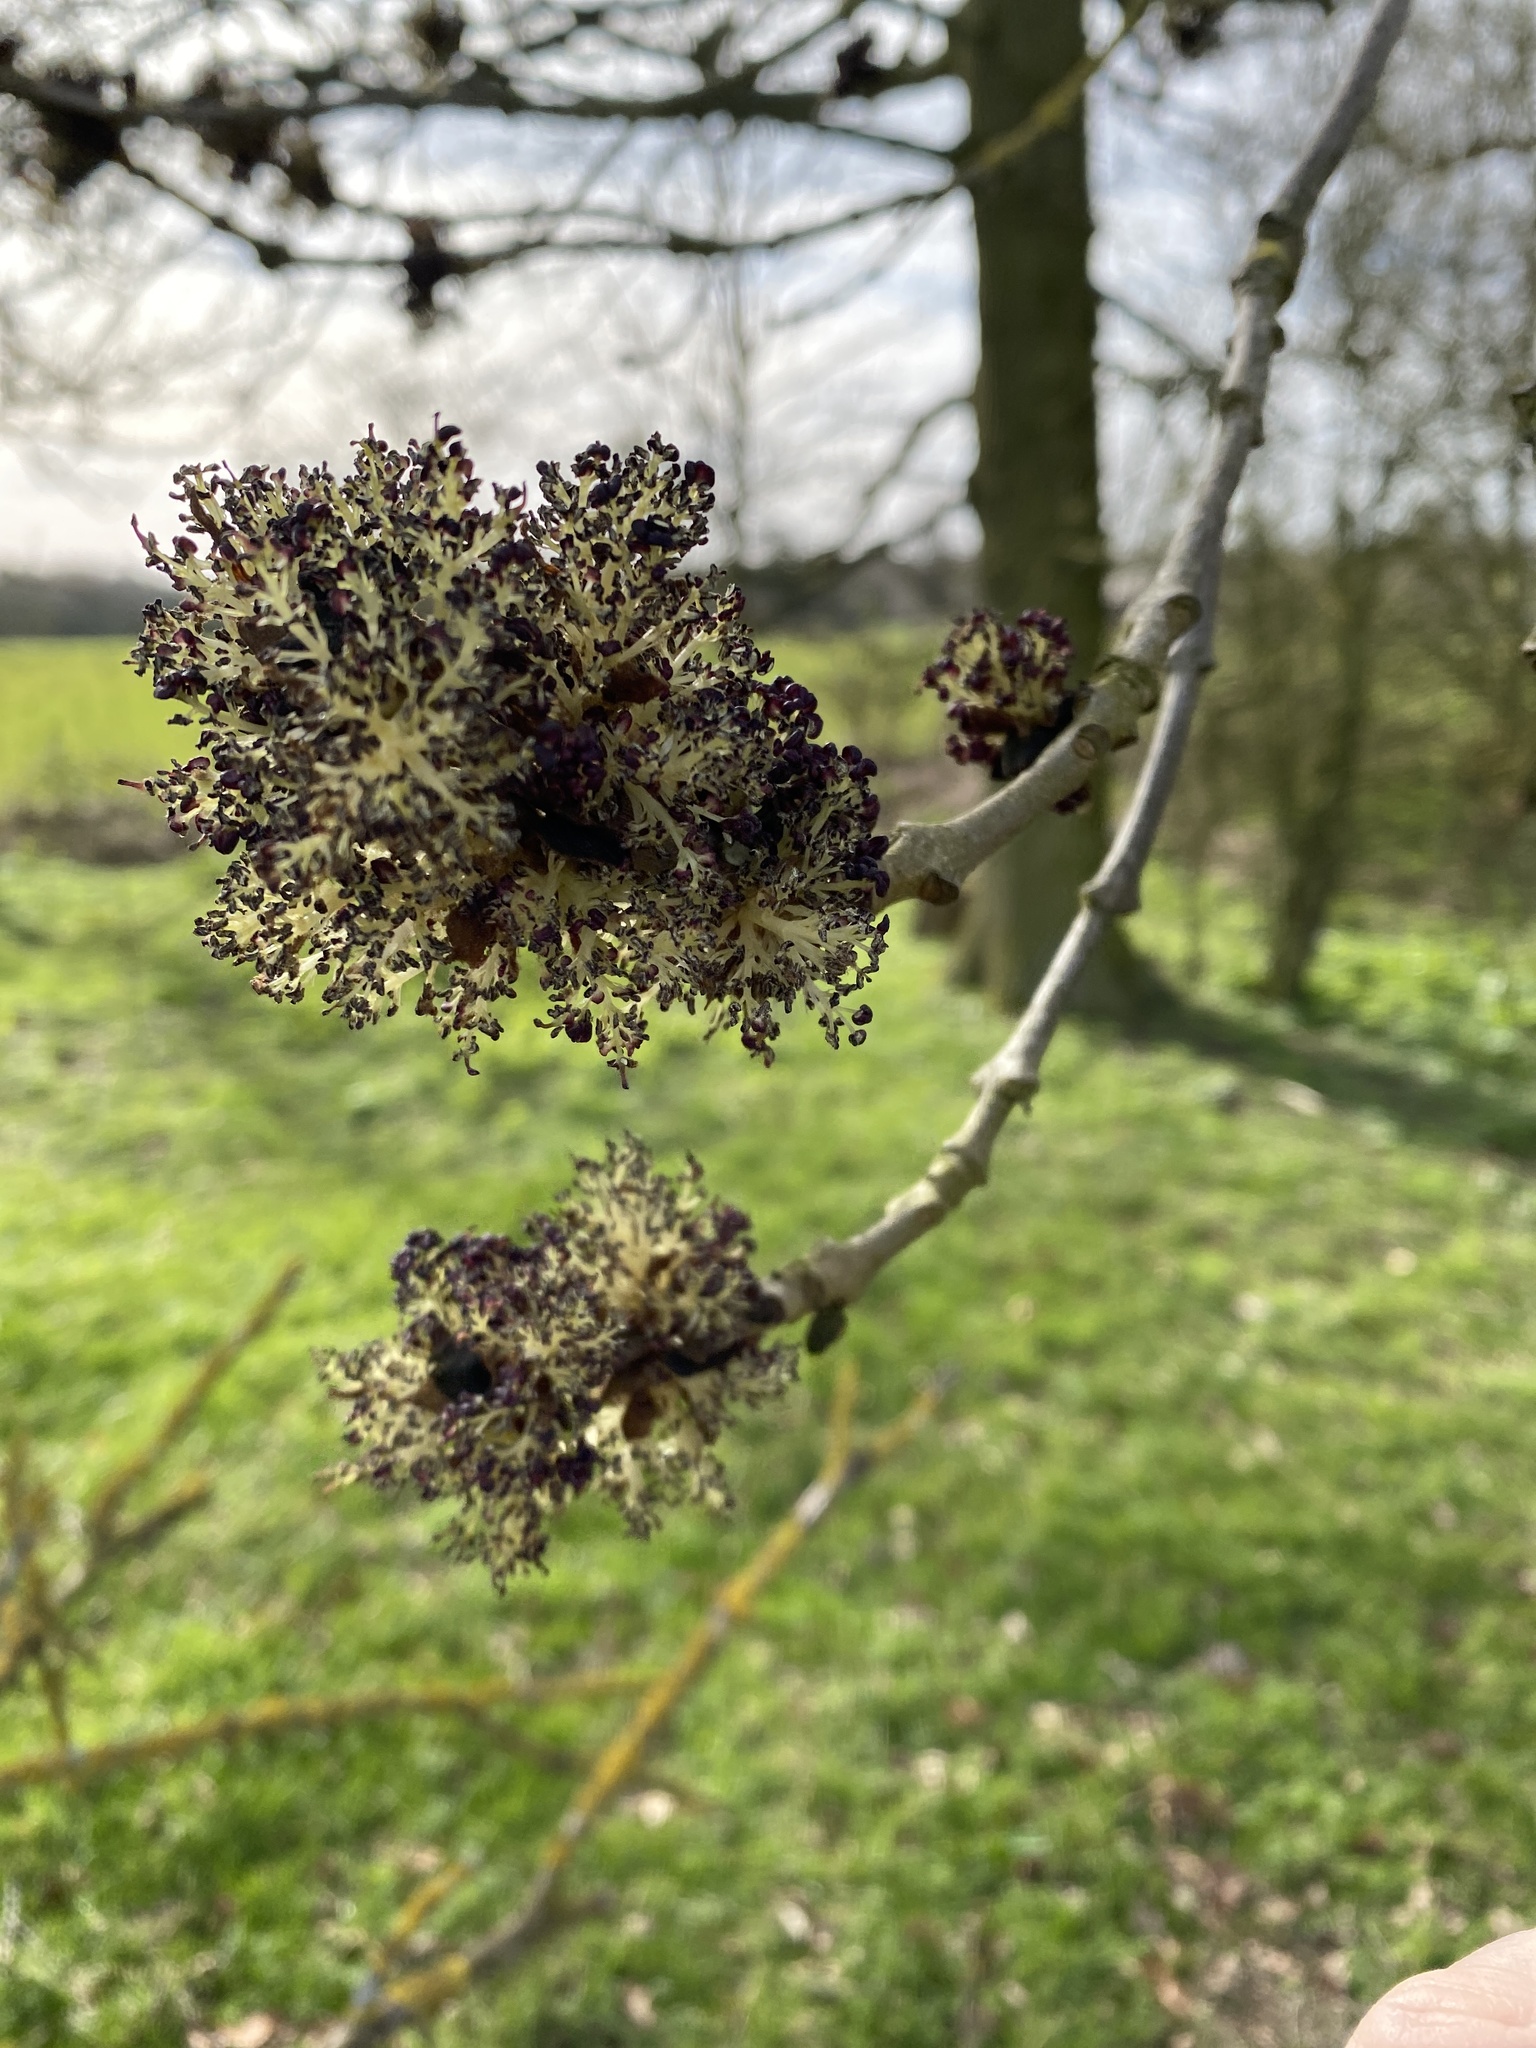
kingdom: Plantae
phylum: Tracheophyta
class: Magnoliopsida
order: Lamiales
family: Oleaceae
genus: Fraxinus
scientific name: Fraxinus excelsior
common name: European ash
